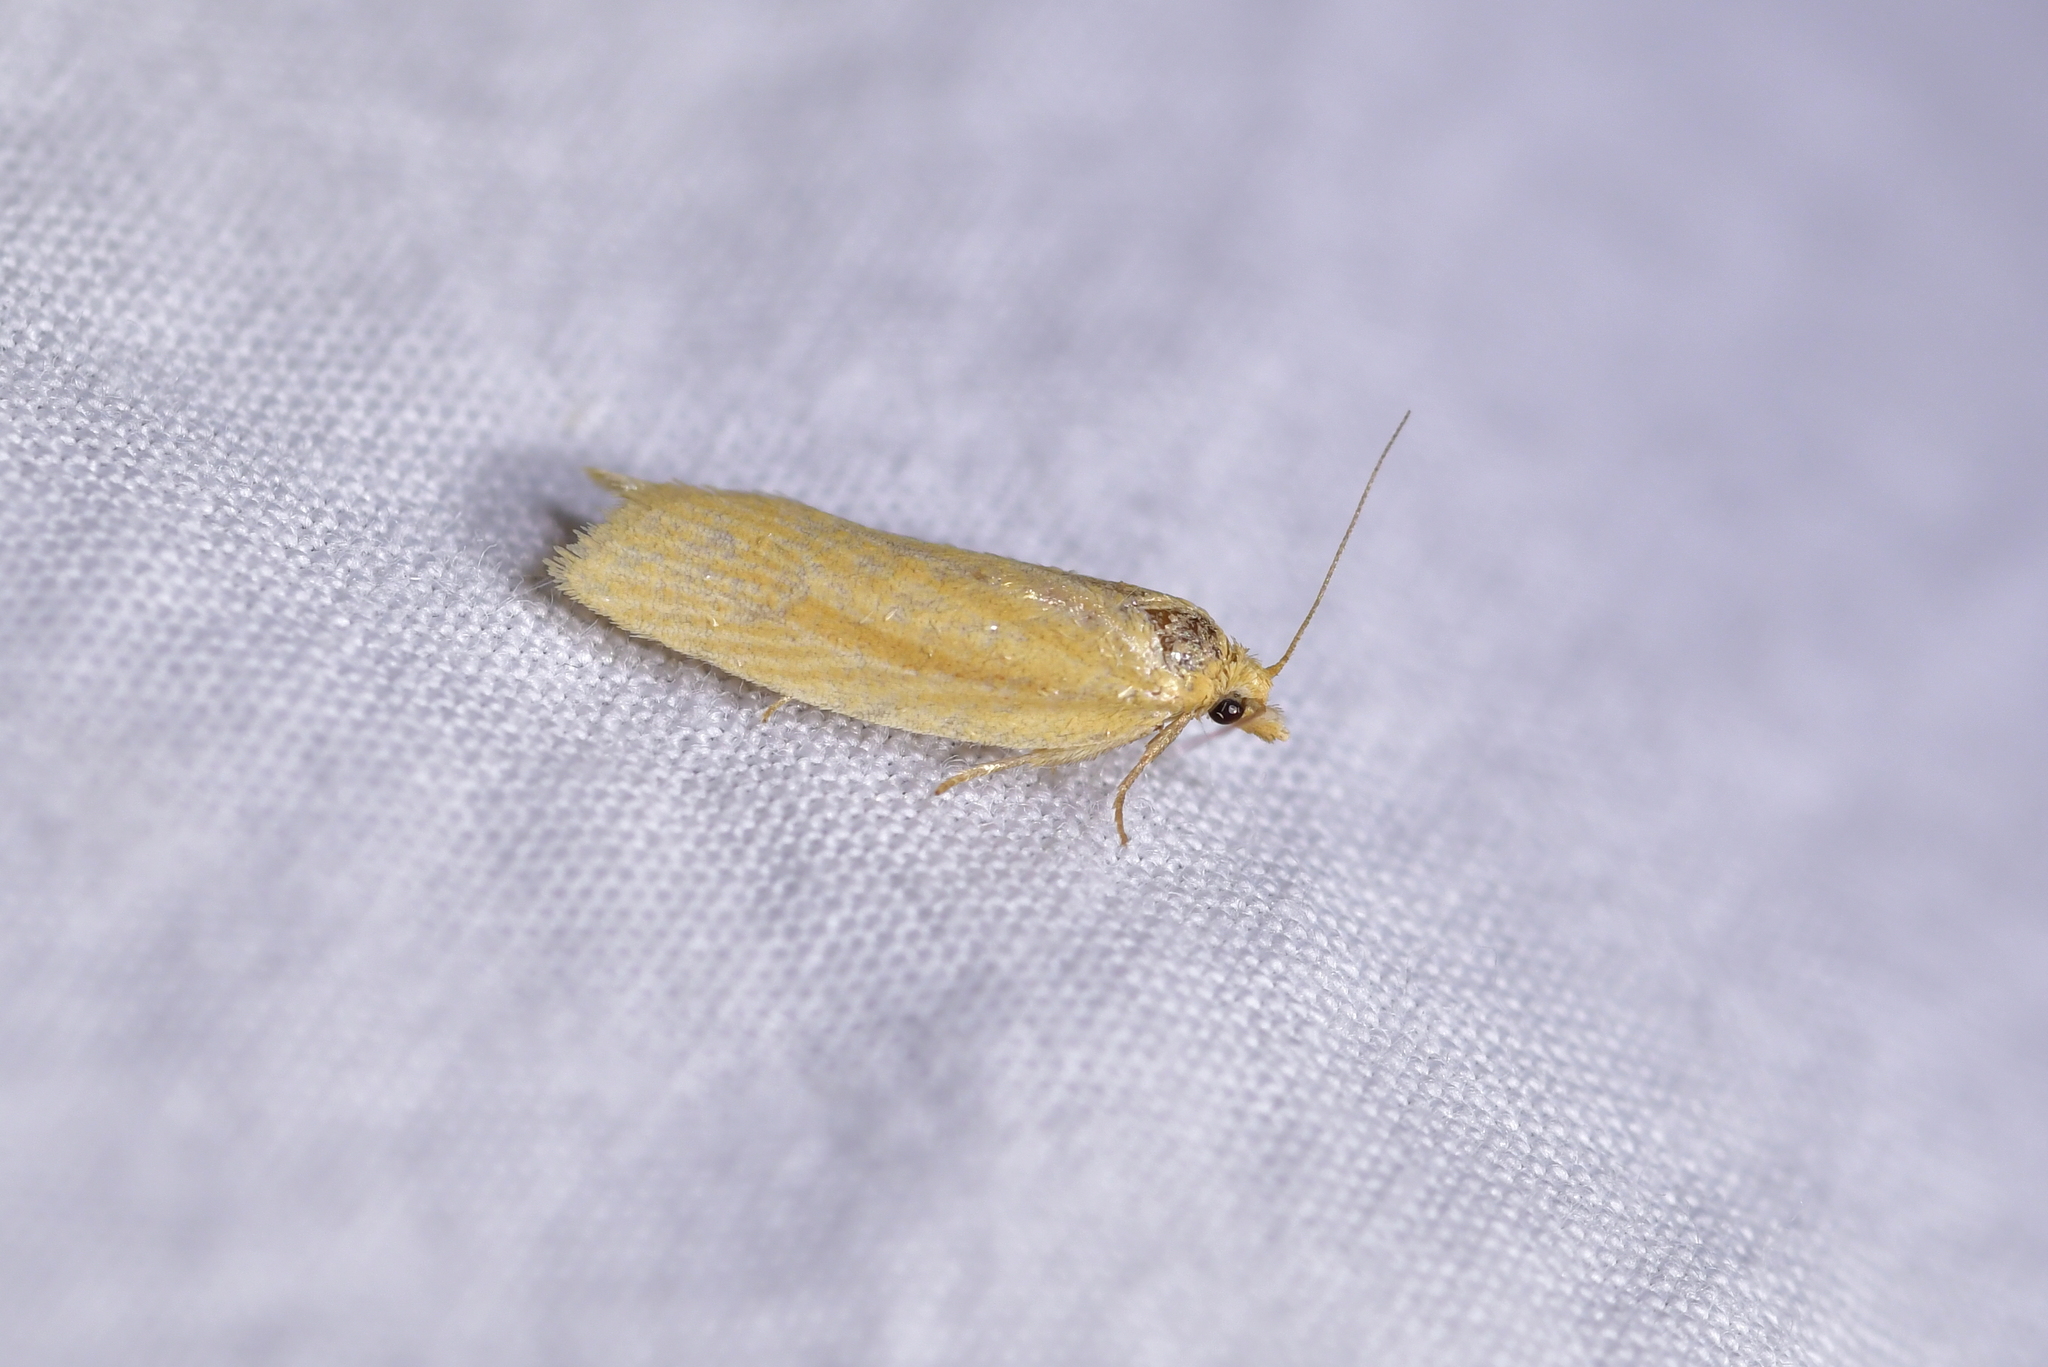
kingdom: Animalia
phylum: Arthropoda
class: Insecta
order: Lepidoptera
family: Tortricidae
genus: Clepsis
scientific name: Clepsis
